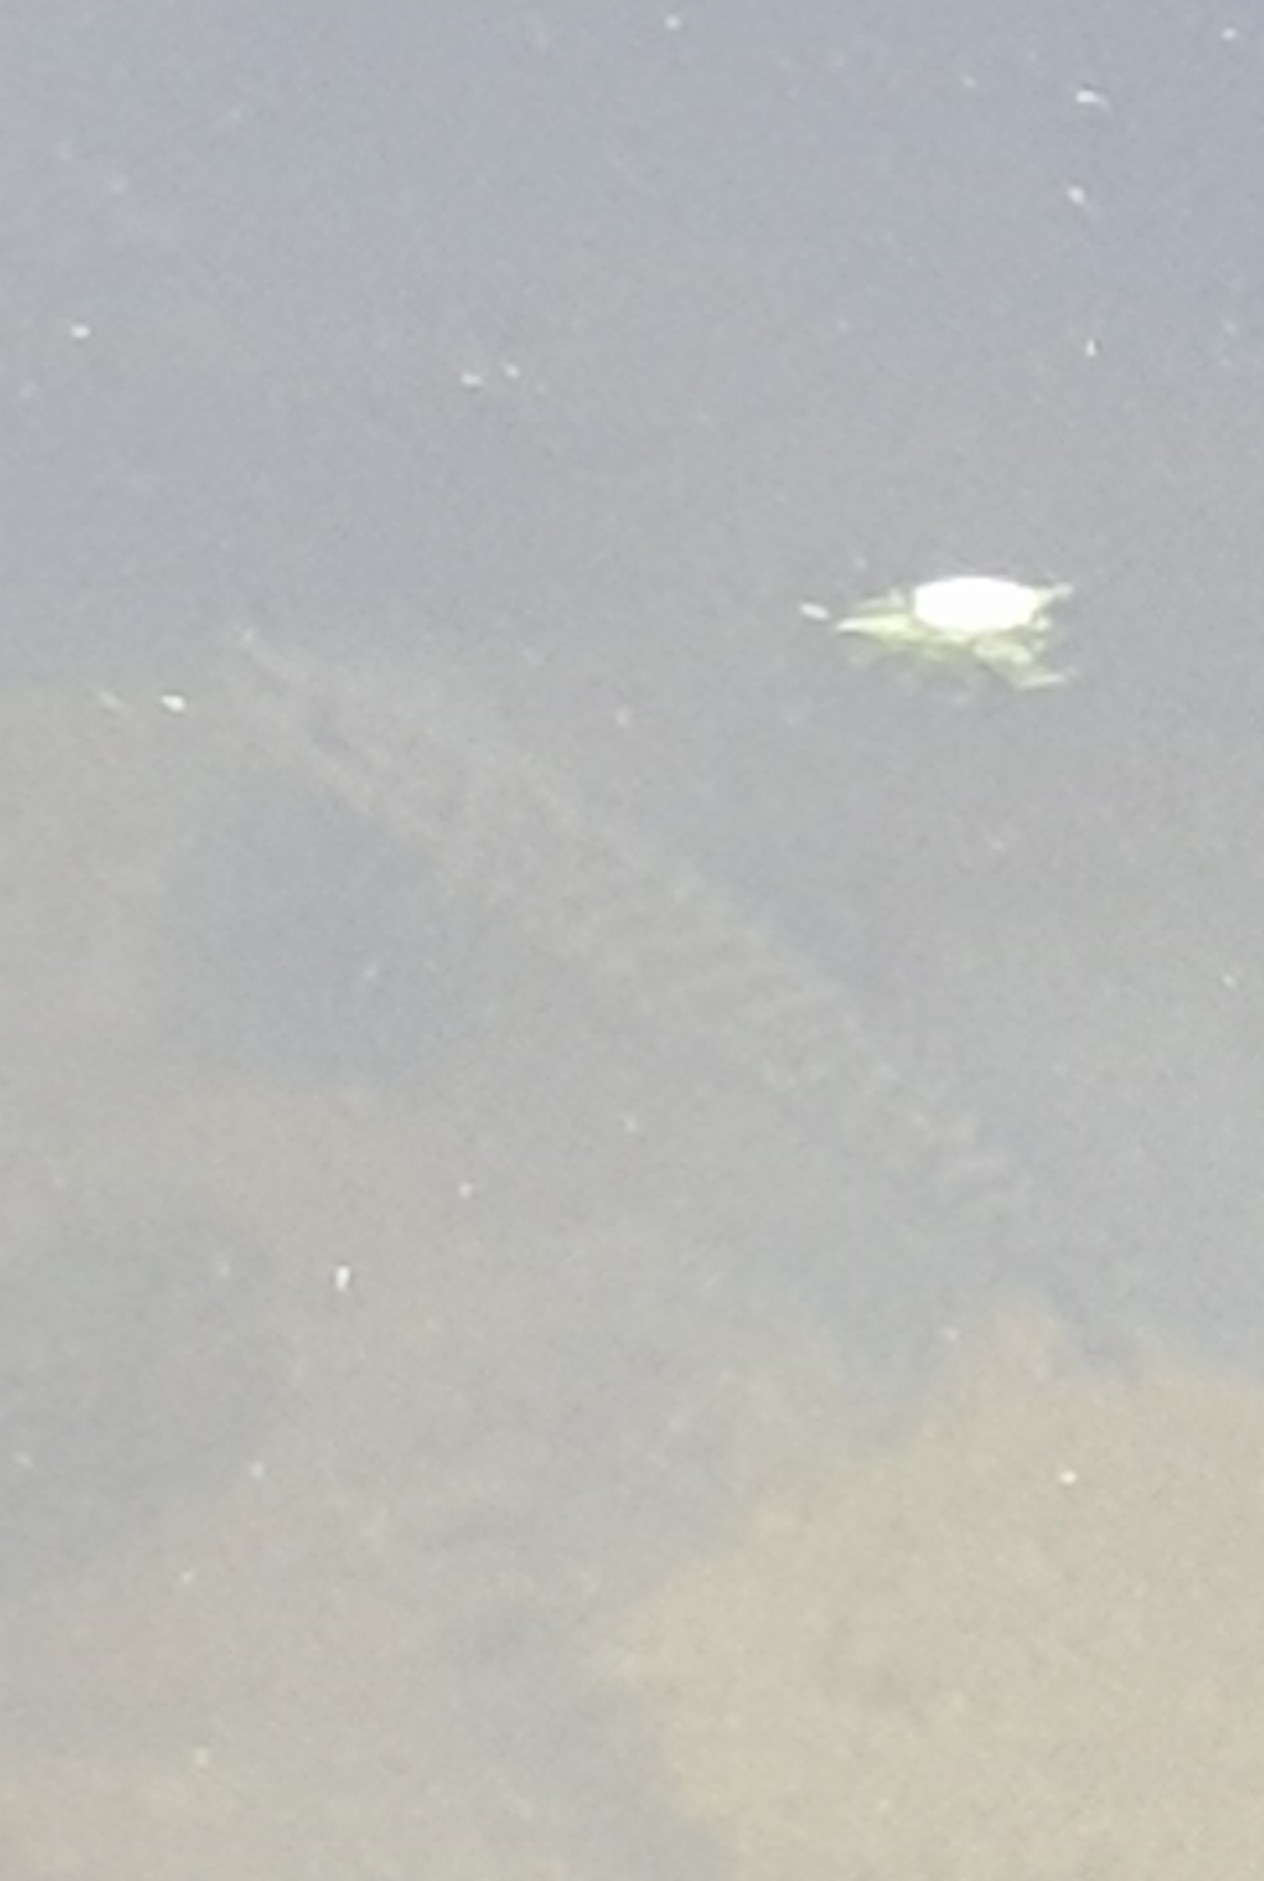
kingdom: Animalia
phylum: Chordata
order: Esociformes
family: Esocidae
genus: Esox
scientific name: Esox lucius
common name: Northern pike
